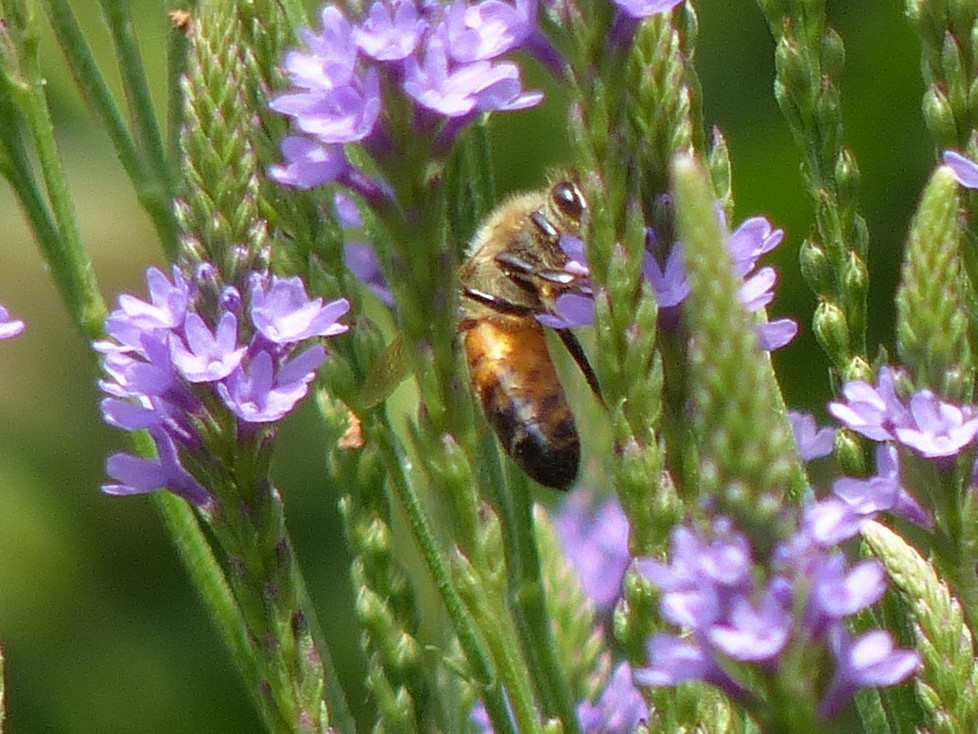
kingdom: Animalia
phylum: Arthropoda
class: Insecta
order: Hymenoptera
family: Apidae
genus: Apis
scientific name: Apis mellifera
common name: Honey bee
